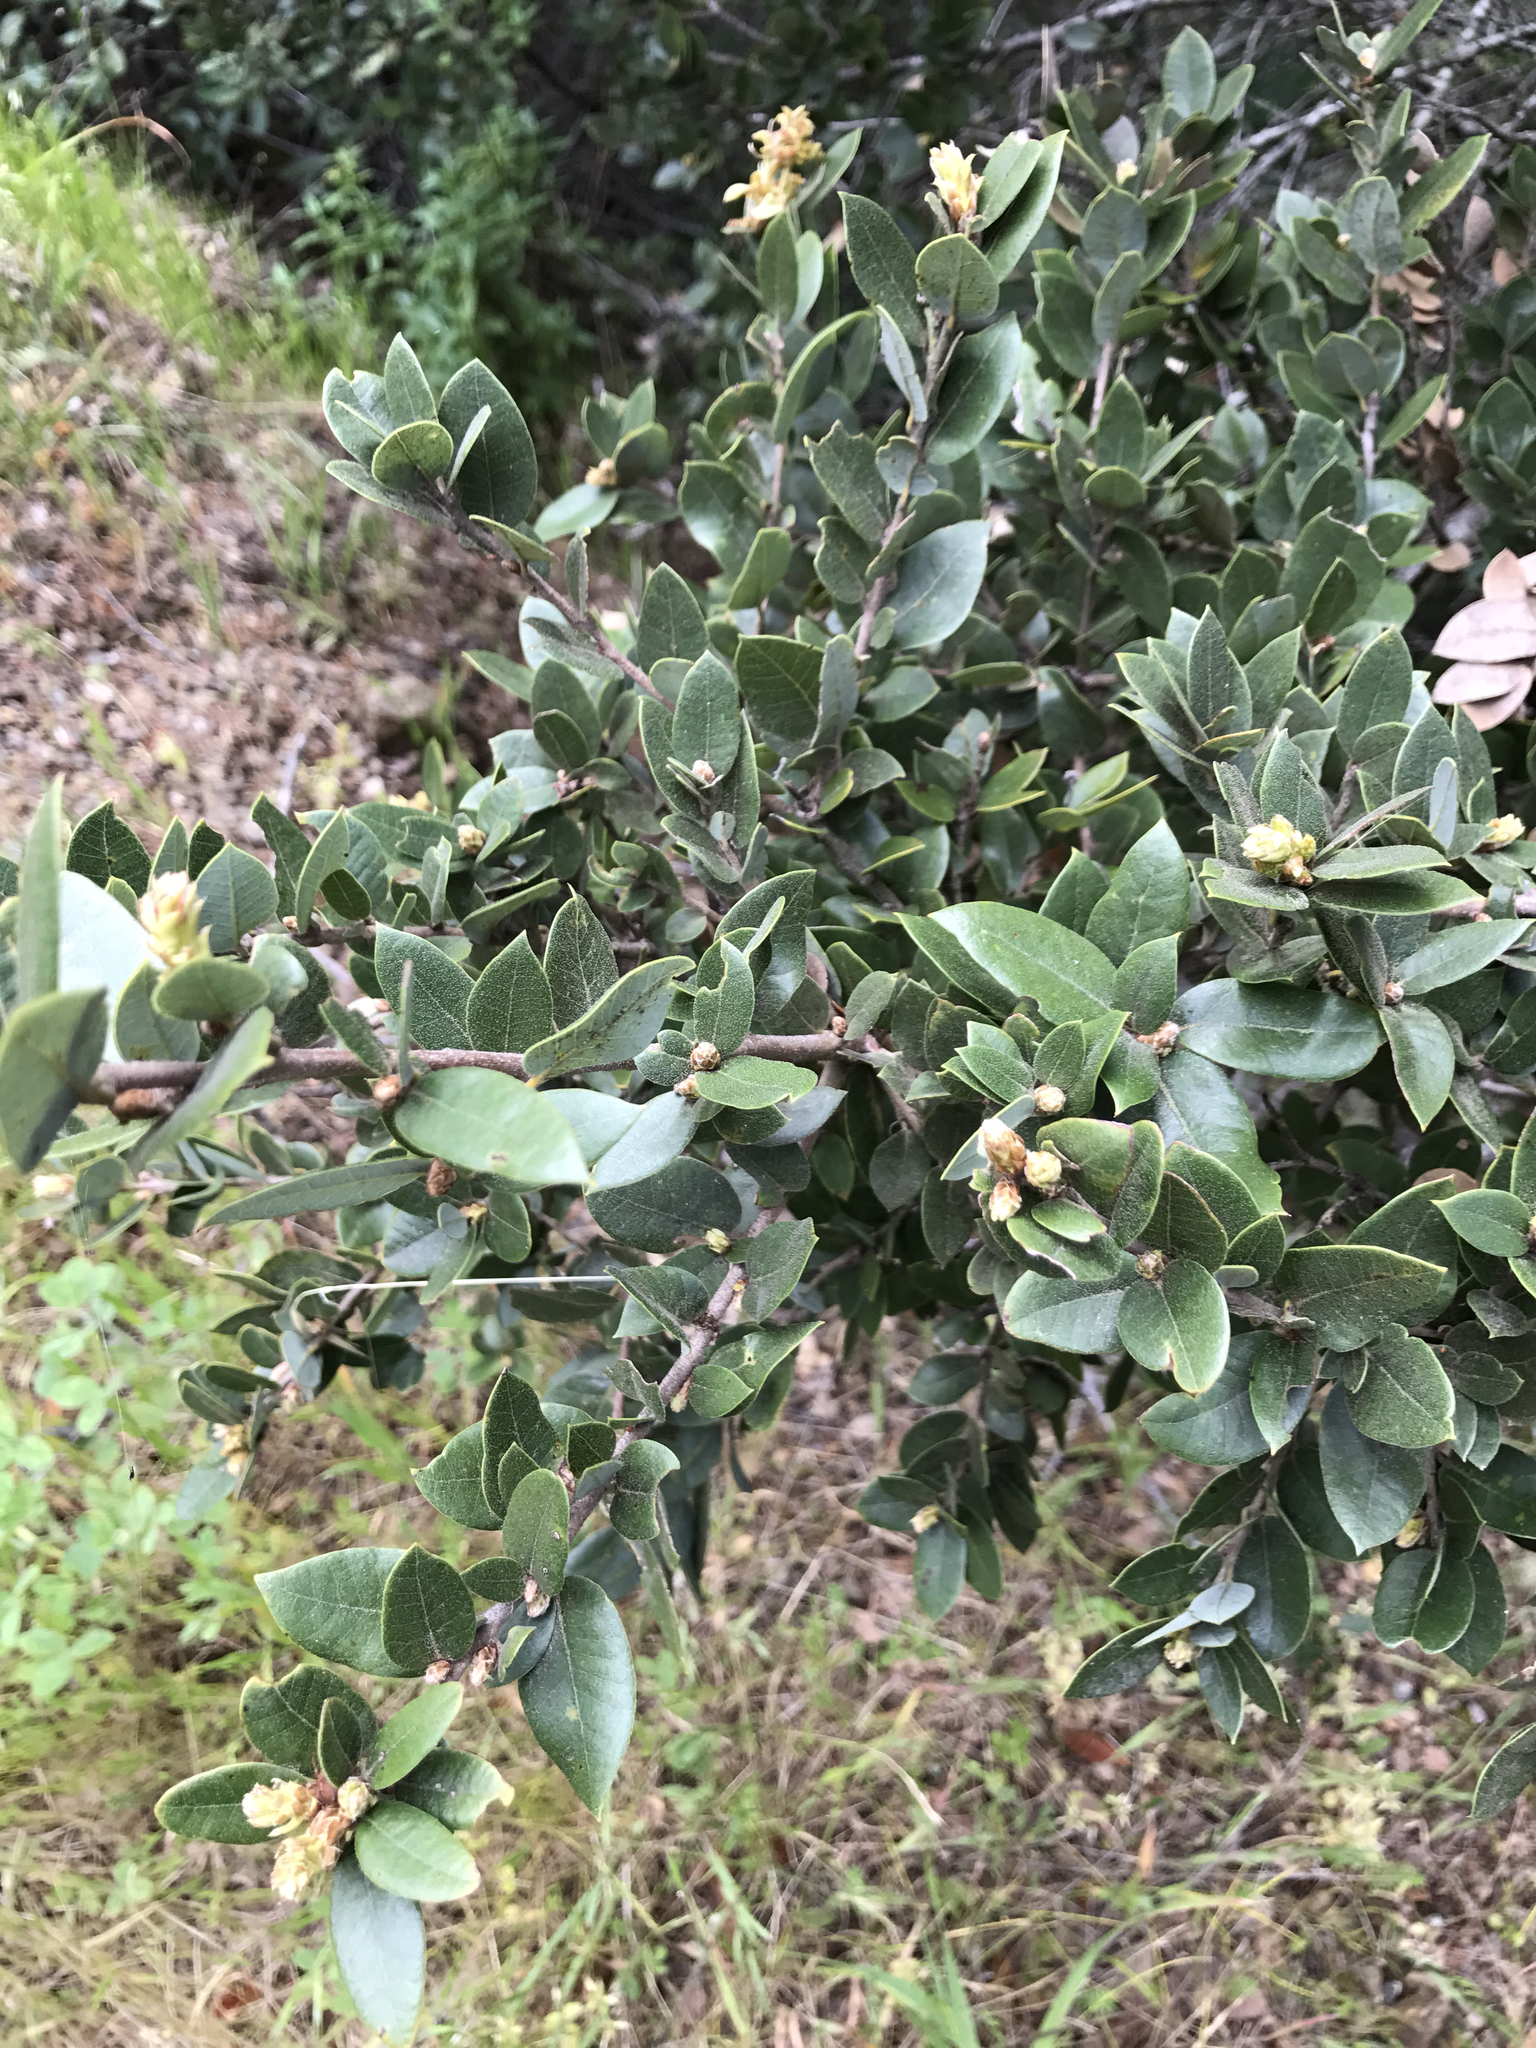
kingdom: Plantae
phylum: Tracheophyta
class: Magnoliopsida
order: Fagales
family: Fagaceae
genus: Quercus
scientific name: Quercus chrysolepis
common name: Canyon live oak
